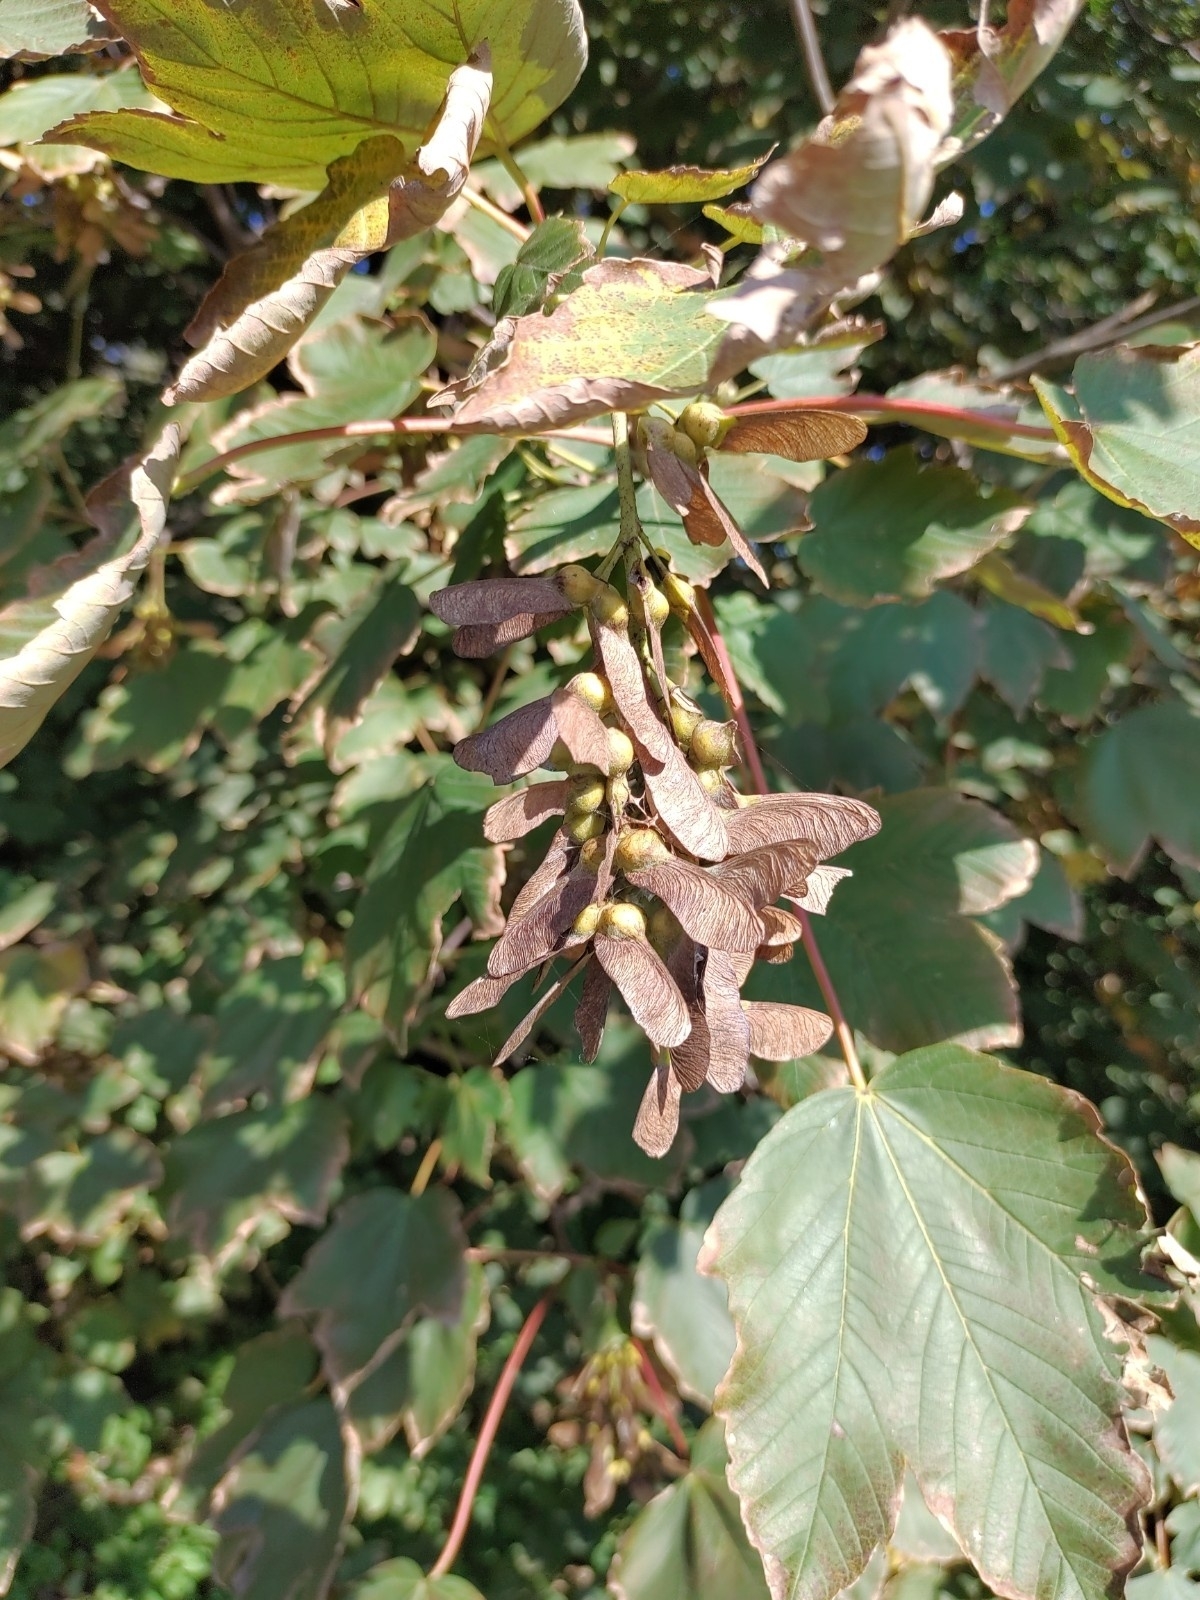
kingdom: Plantae
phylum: Tracheophyta
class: Magnoliopsida
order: Sapindales
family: Sapindaceae
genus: Acer
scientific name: Acer pseudoplatanus
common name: Sycamore
